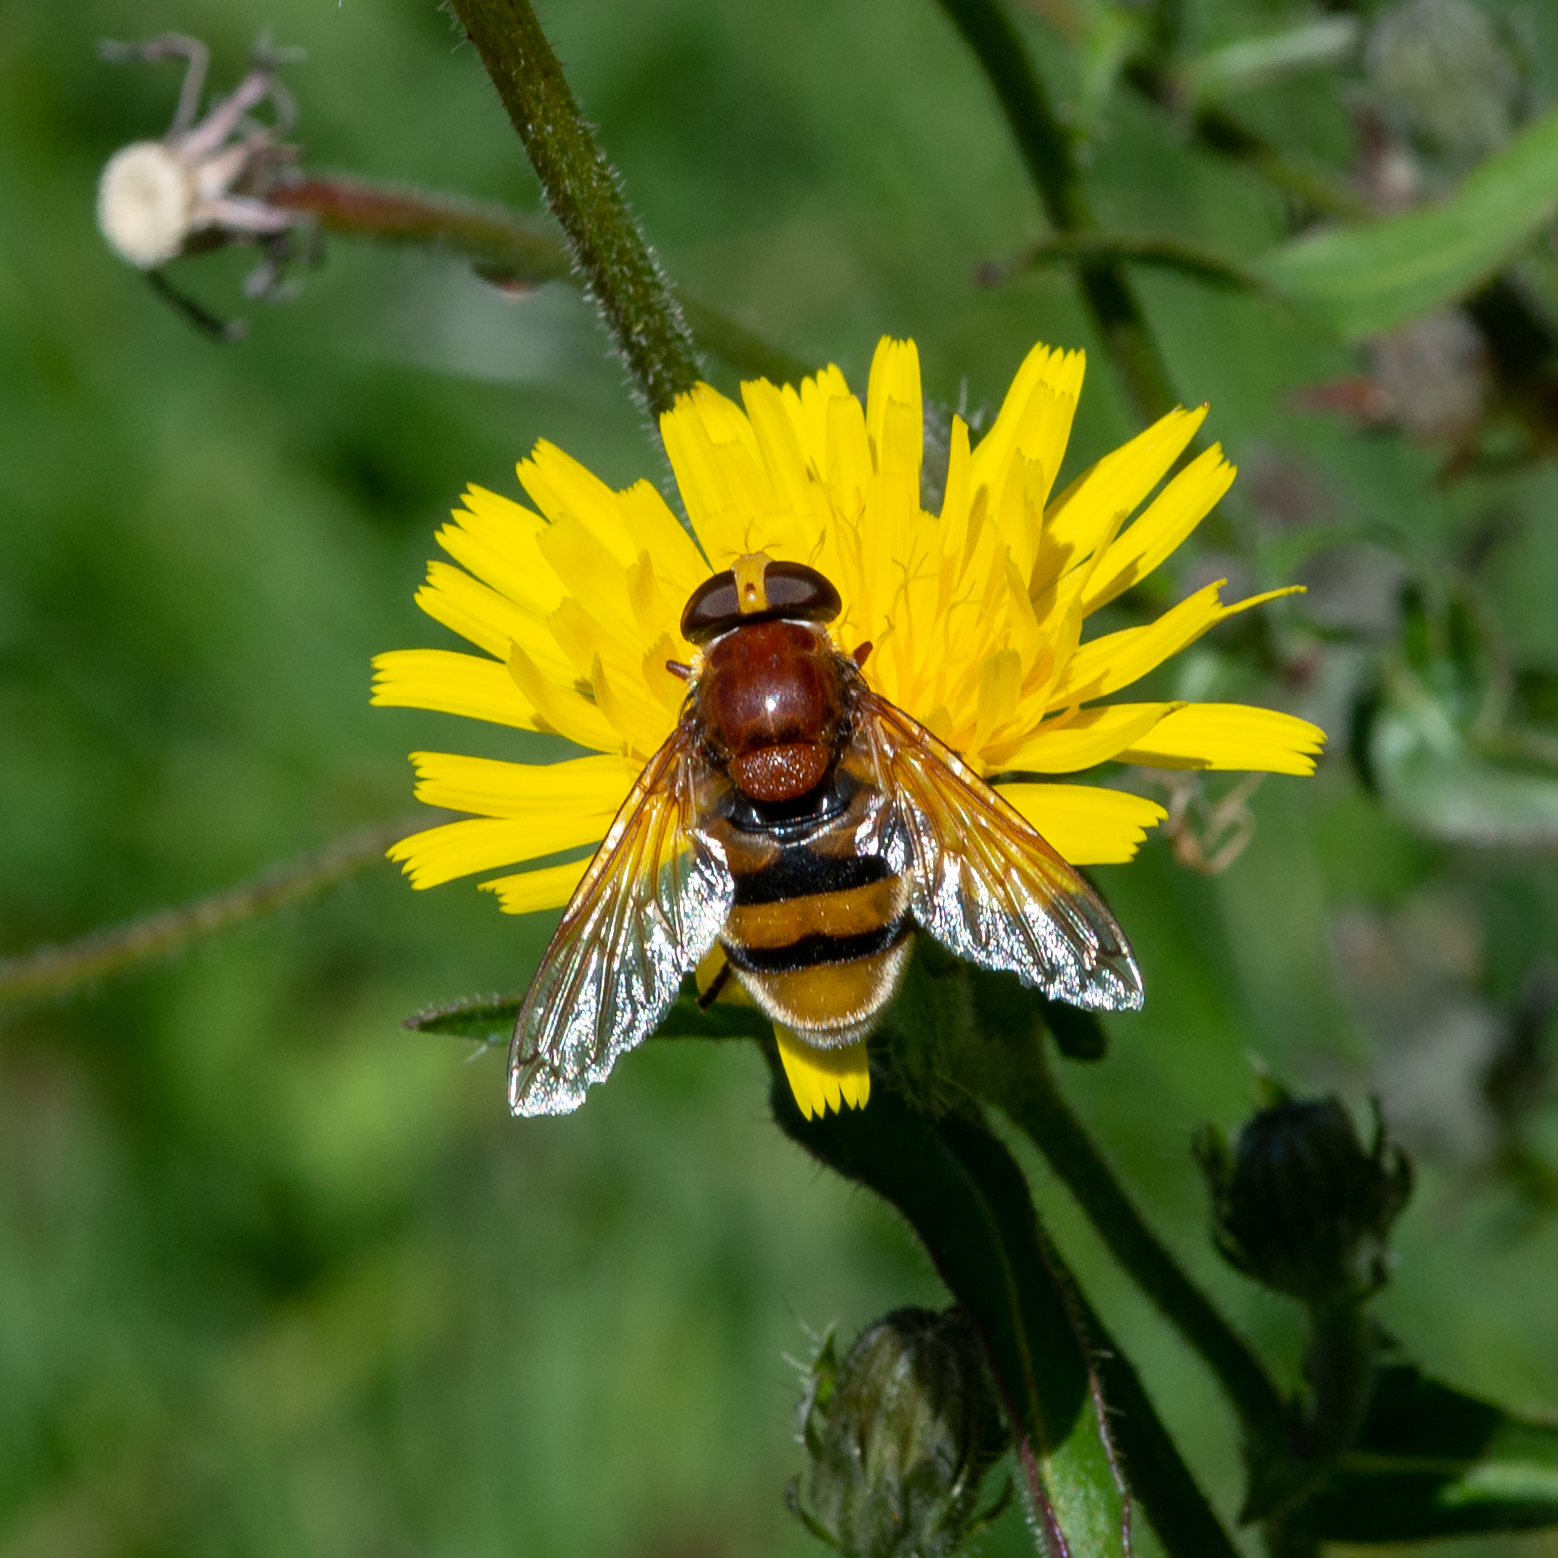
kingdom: Animalia
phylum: Arthropoda
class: Insecta
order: Diptera
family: Syrphidae
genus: Volucella
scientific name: Volucella zonaria
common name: Hornet hoverfly
